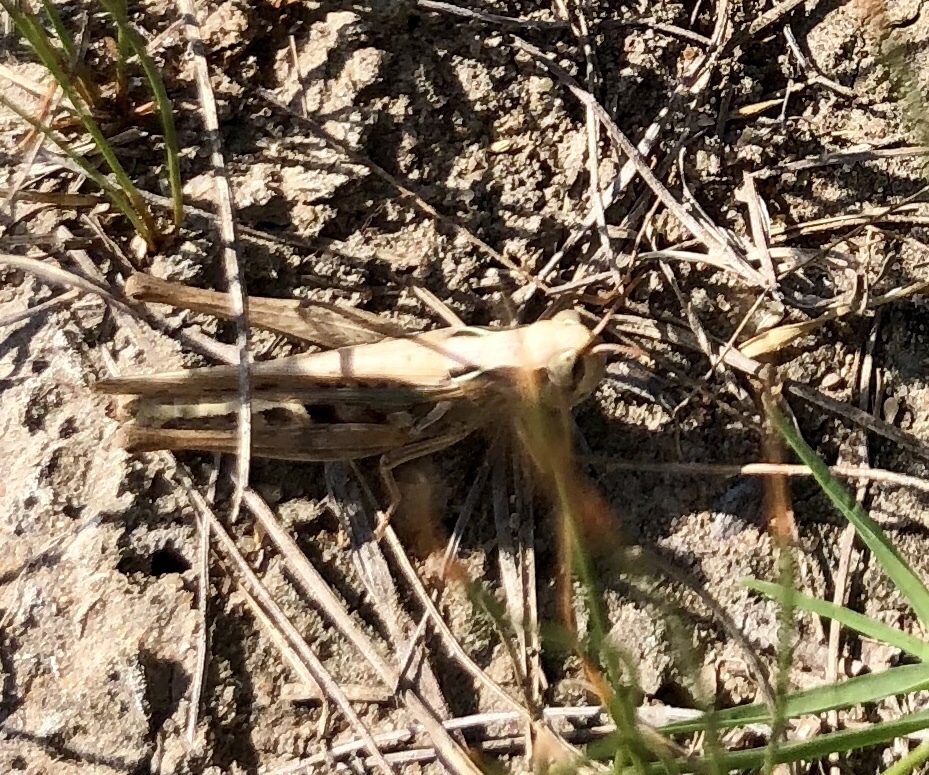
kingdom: Animalia
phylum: Arthropoda
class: Insecta
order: Orthoptera
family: Acrididae
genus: Orphulella
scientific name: Orphulella pelidna
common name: Spotted-wing grasshopper
